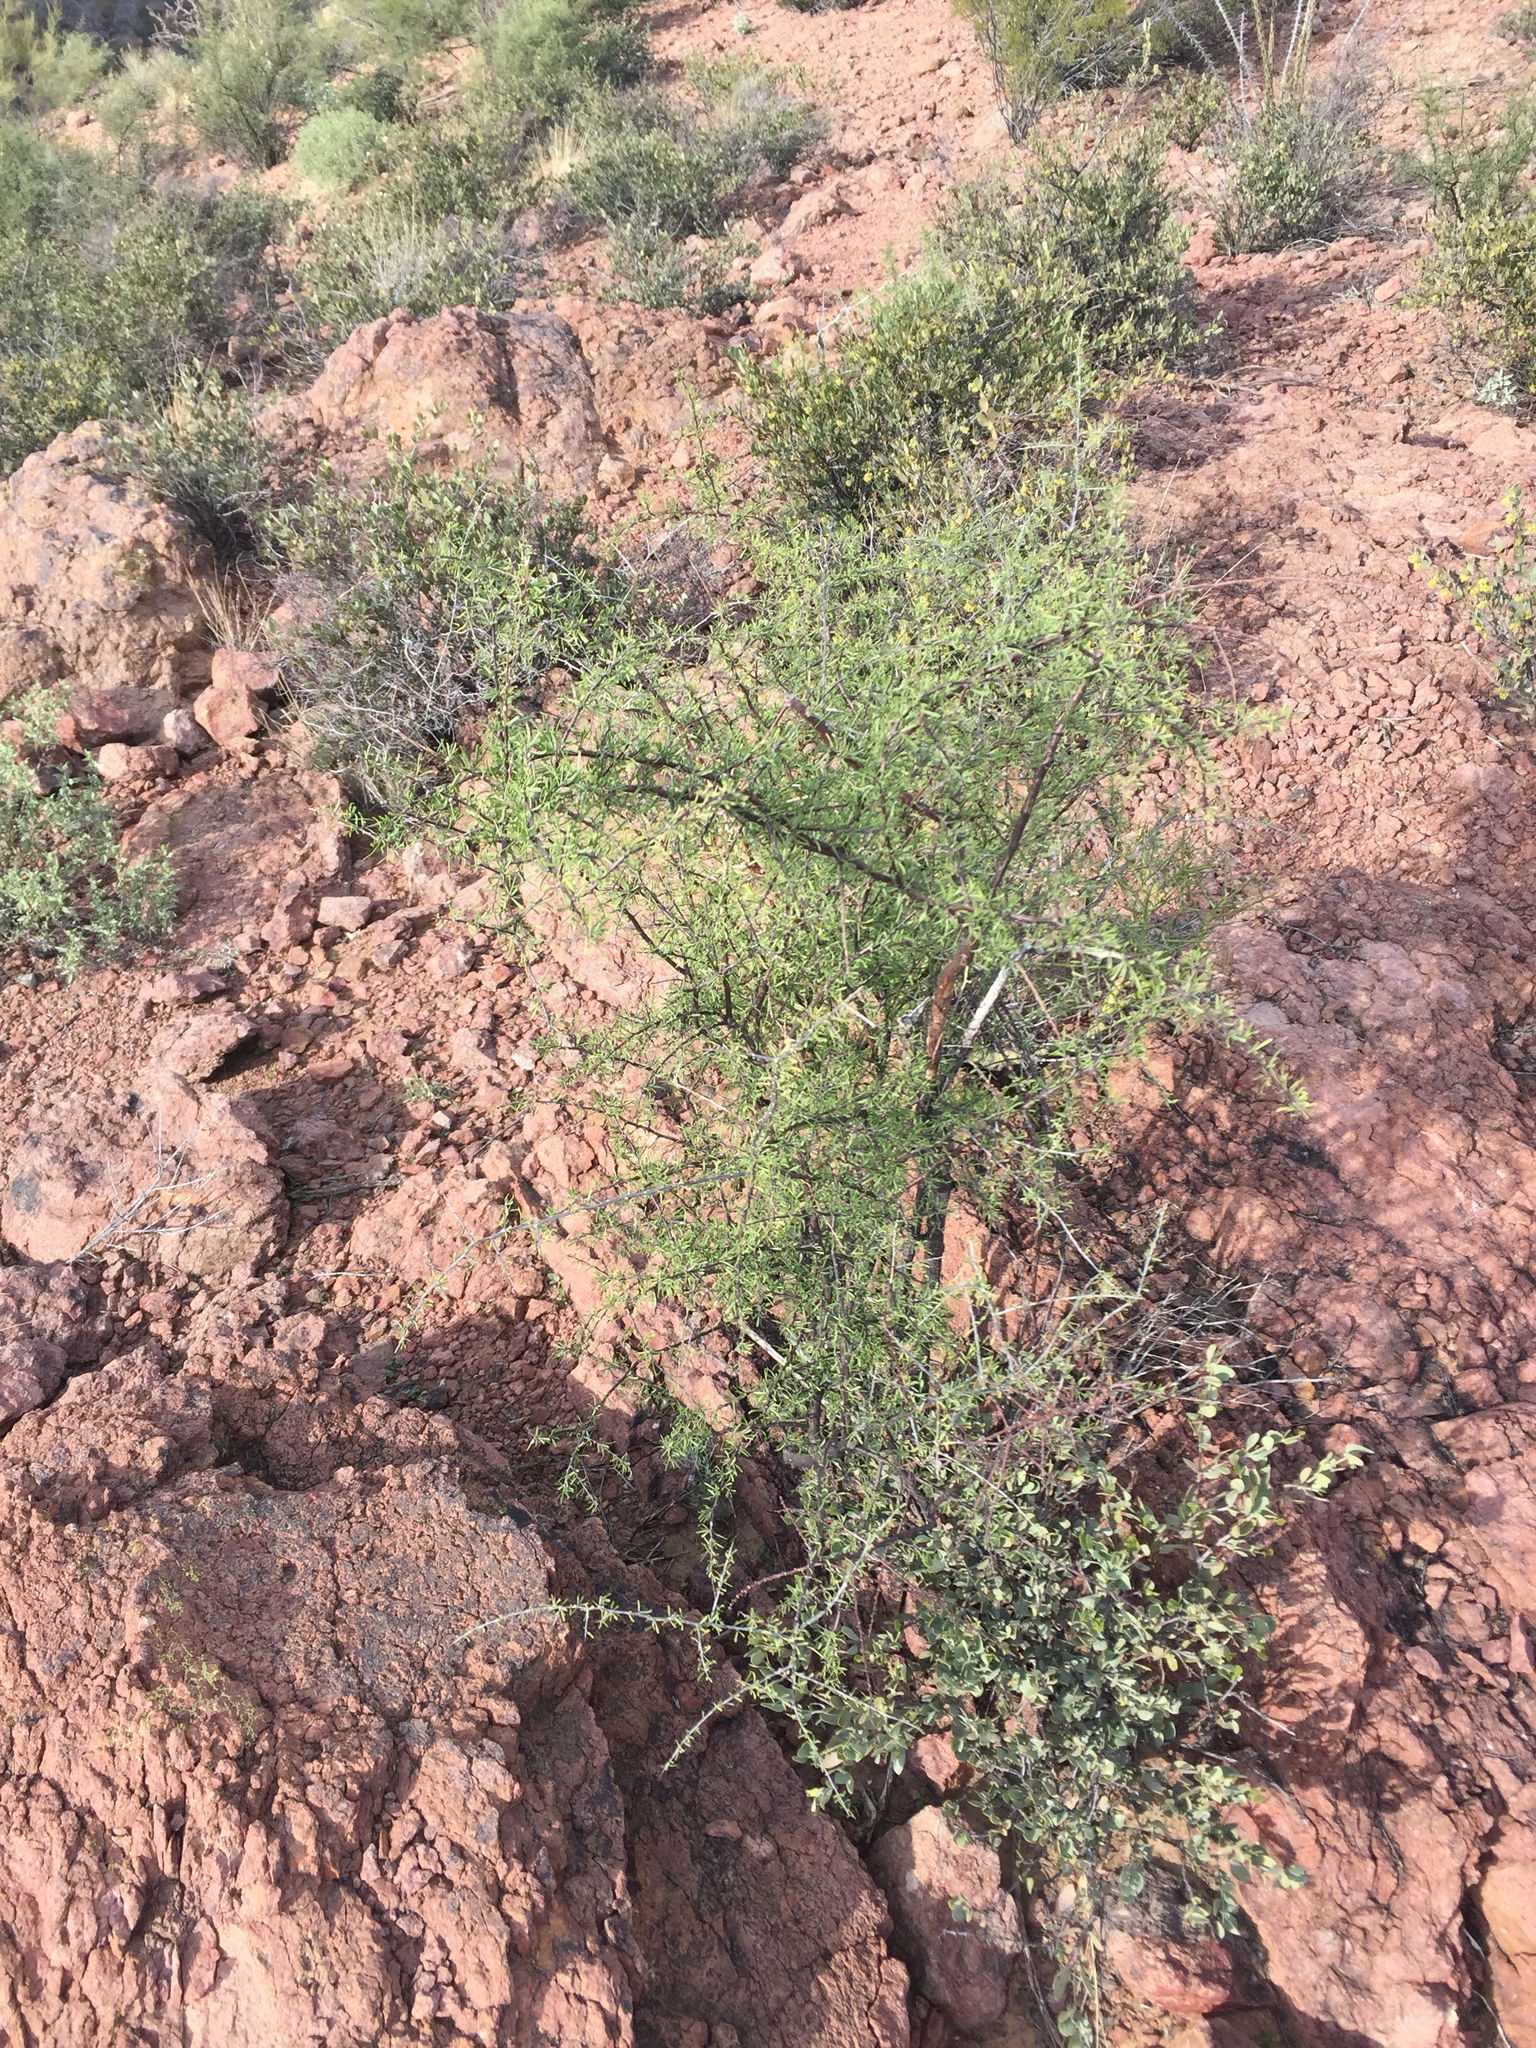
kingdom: Plantae
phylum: Tracheophyta
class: Magnoliopsida
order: Solanales
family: Solanaceae
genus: Lycium
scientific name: Lycium berlandieri
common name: Berlandier wolfberry
